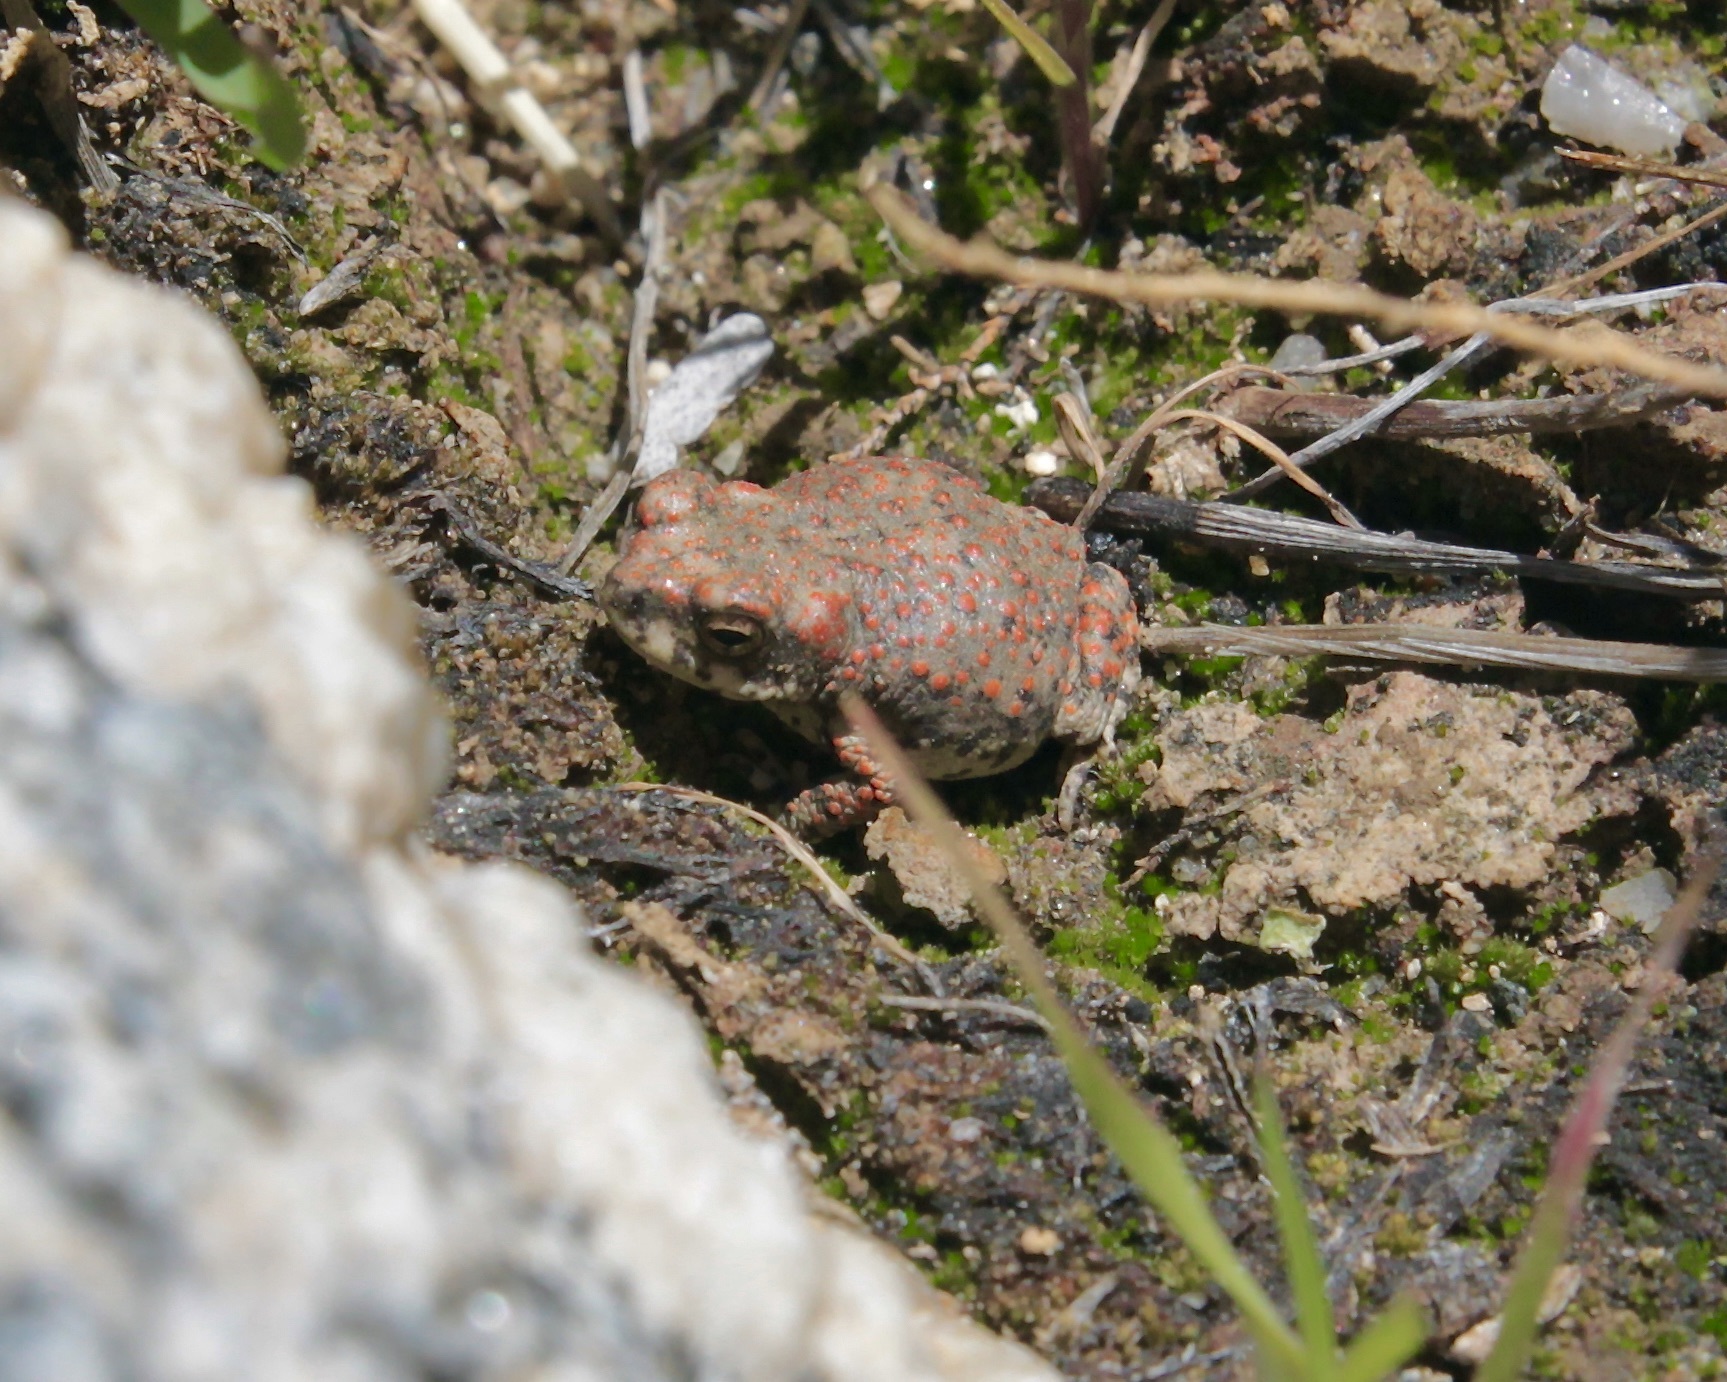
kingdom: Animalia
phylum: Chordata
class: Amphibia
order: Anura
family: Bufonidae
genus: Anaxyrus
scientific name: Anaxyrus punctatus
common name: Red-spotted toad
